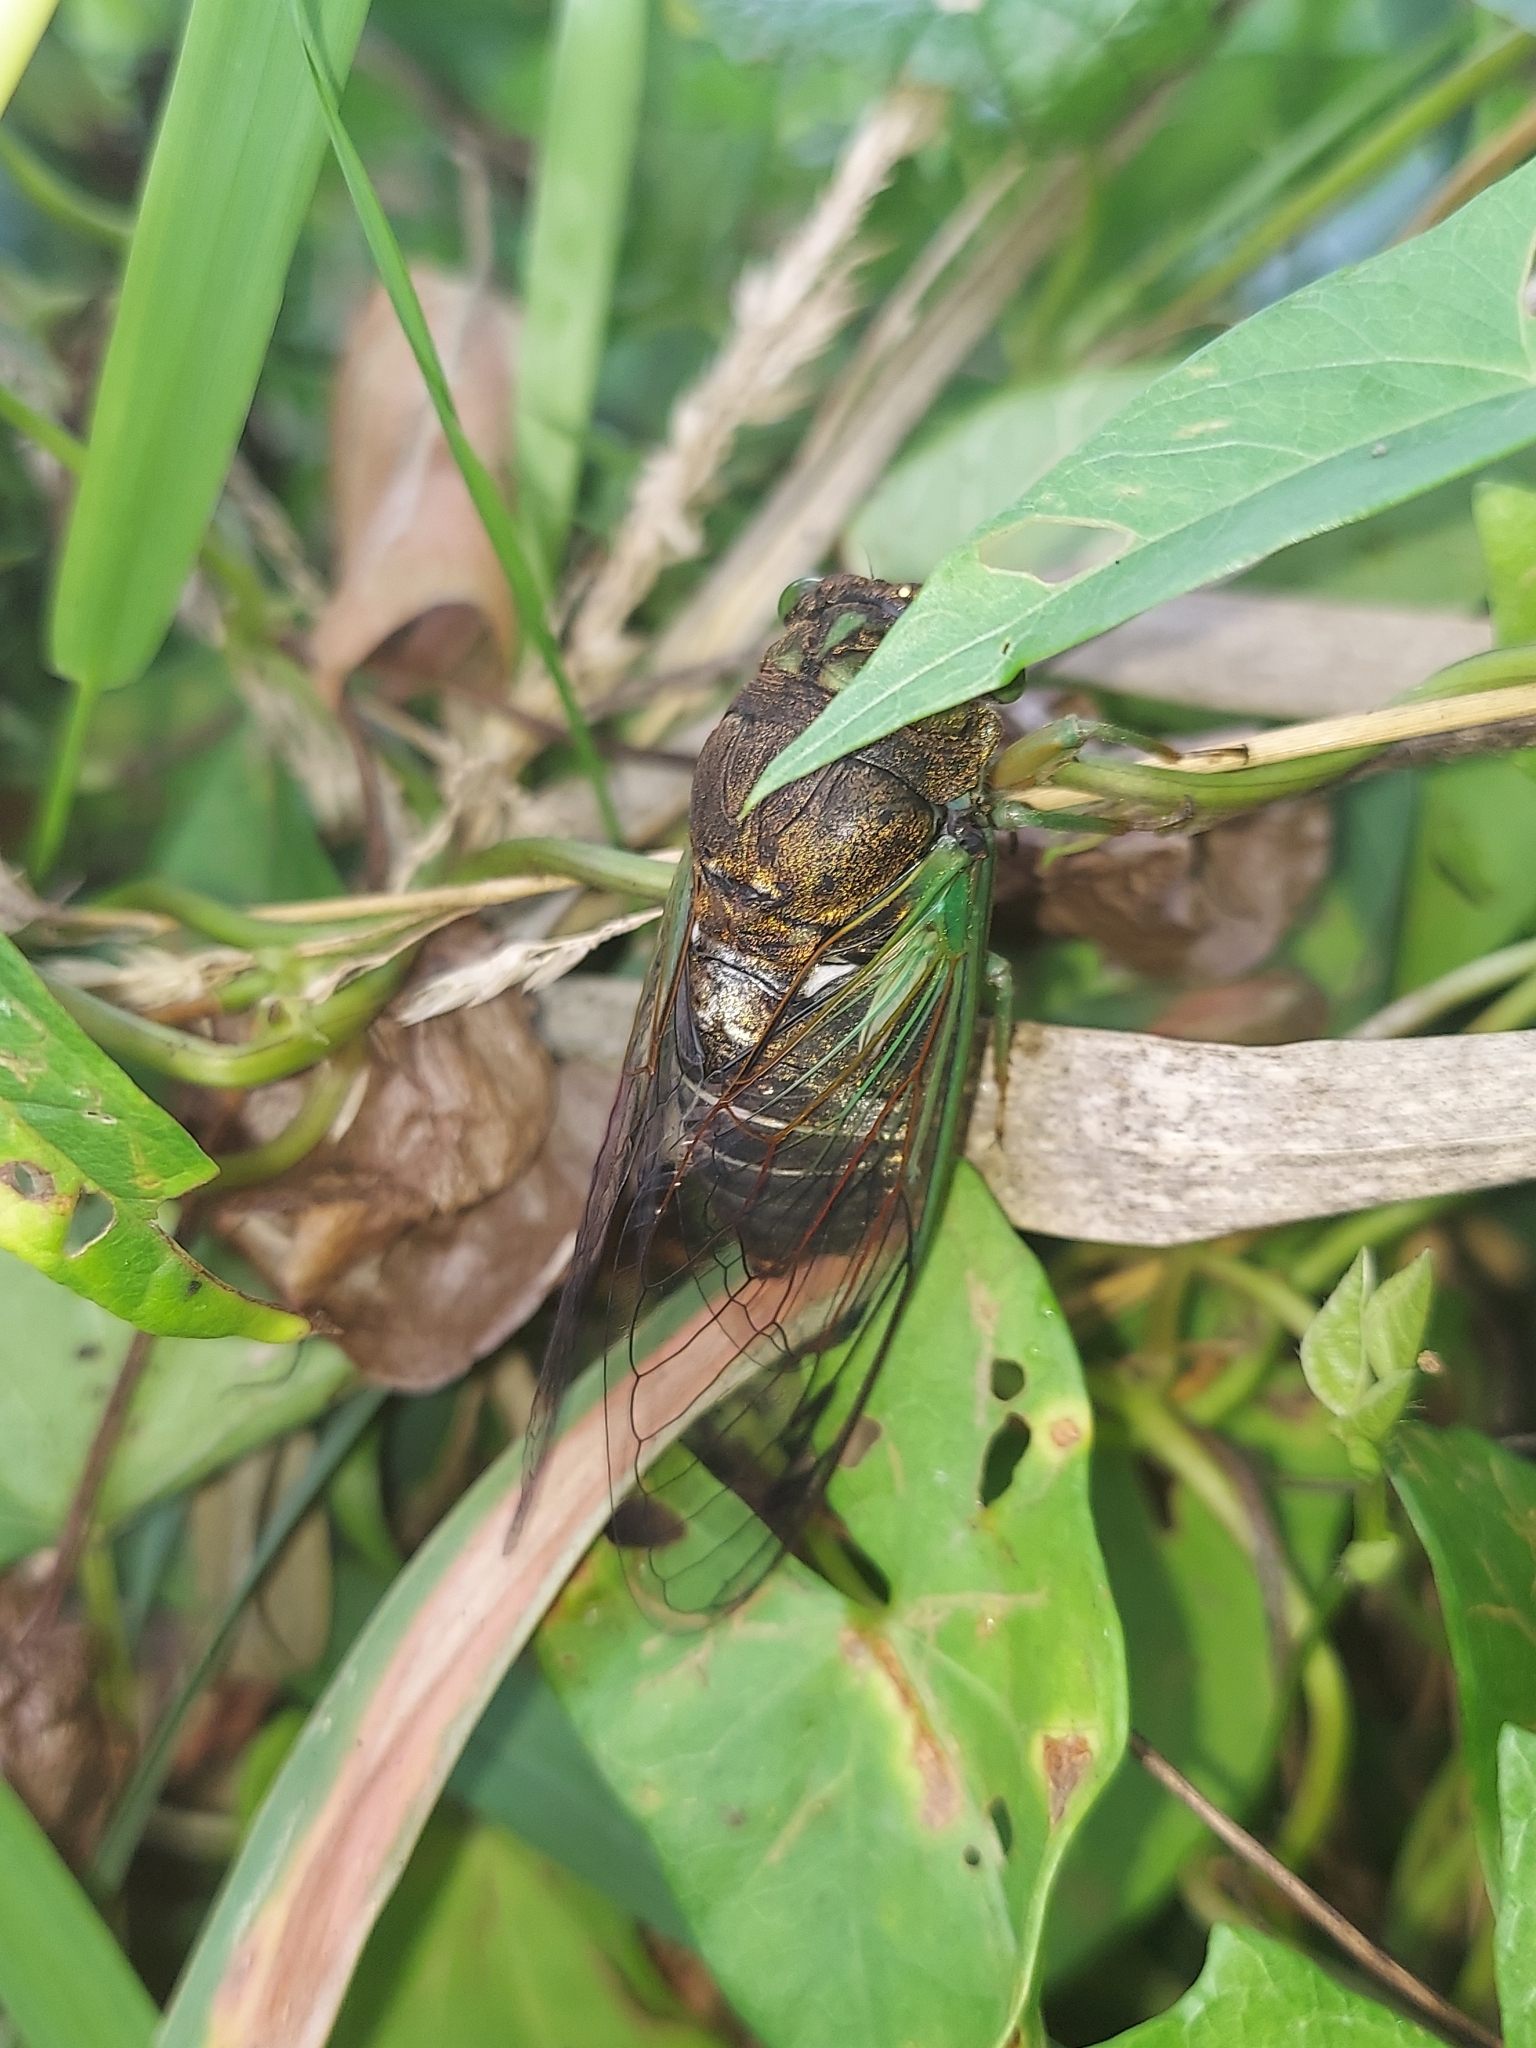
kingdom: Animalia
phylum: Arthropoda
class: Insecta
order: Hemiptera
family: Cicadidae
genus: Neotibicen
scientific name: Neotibicen tibicen
